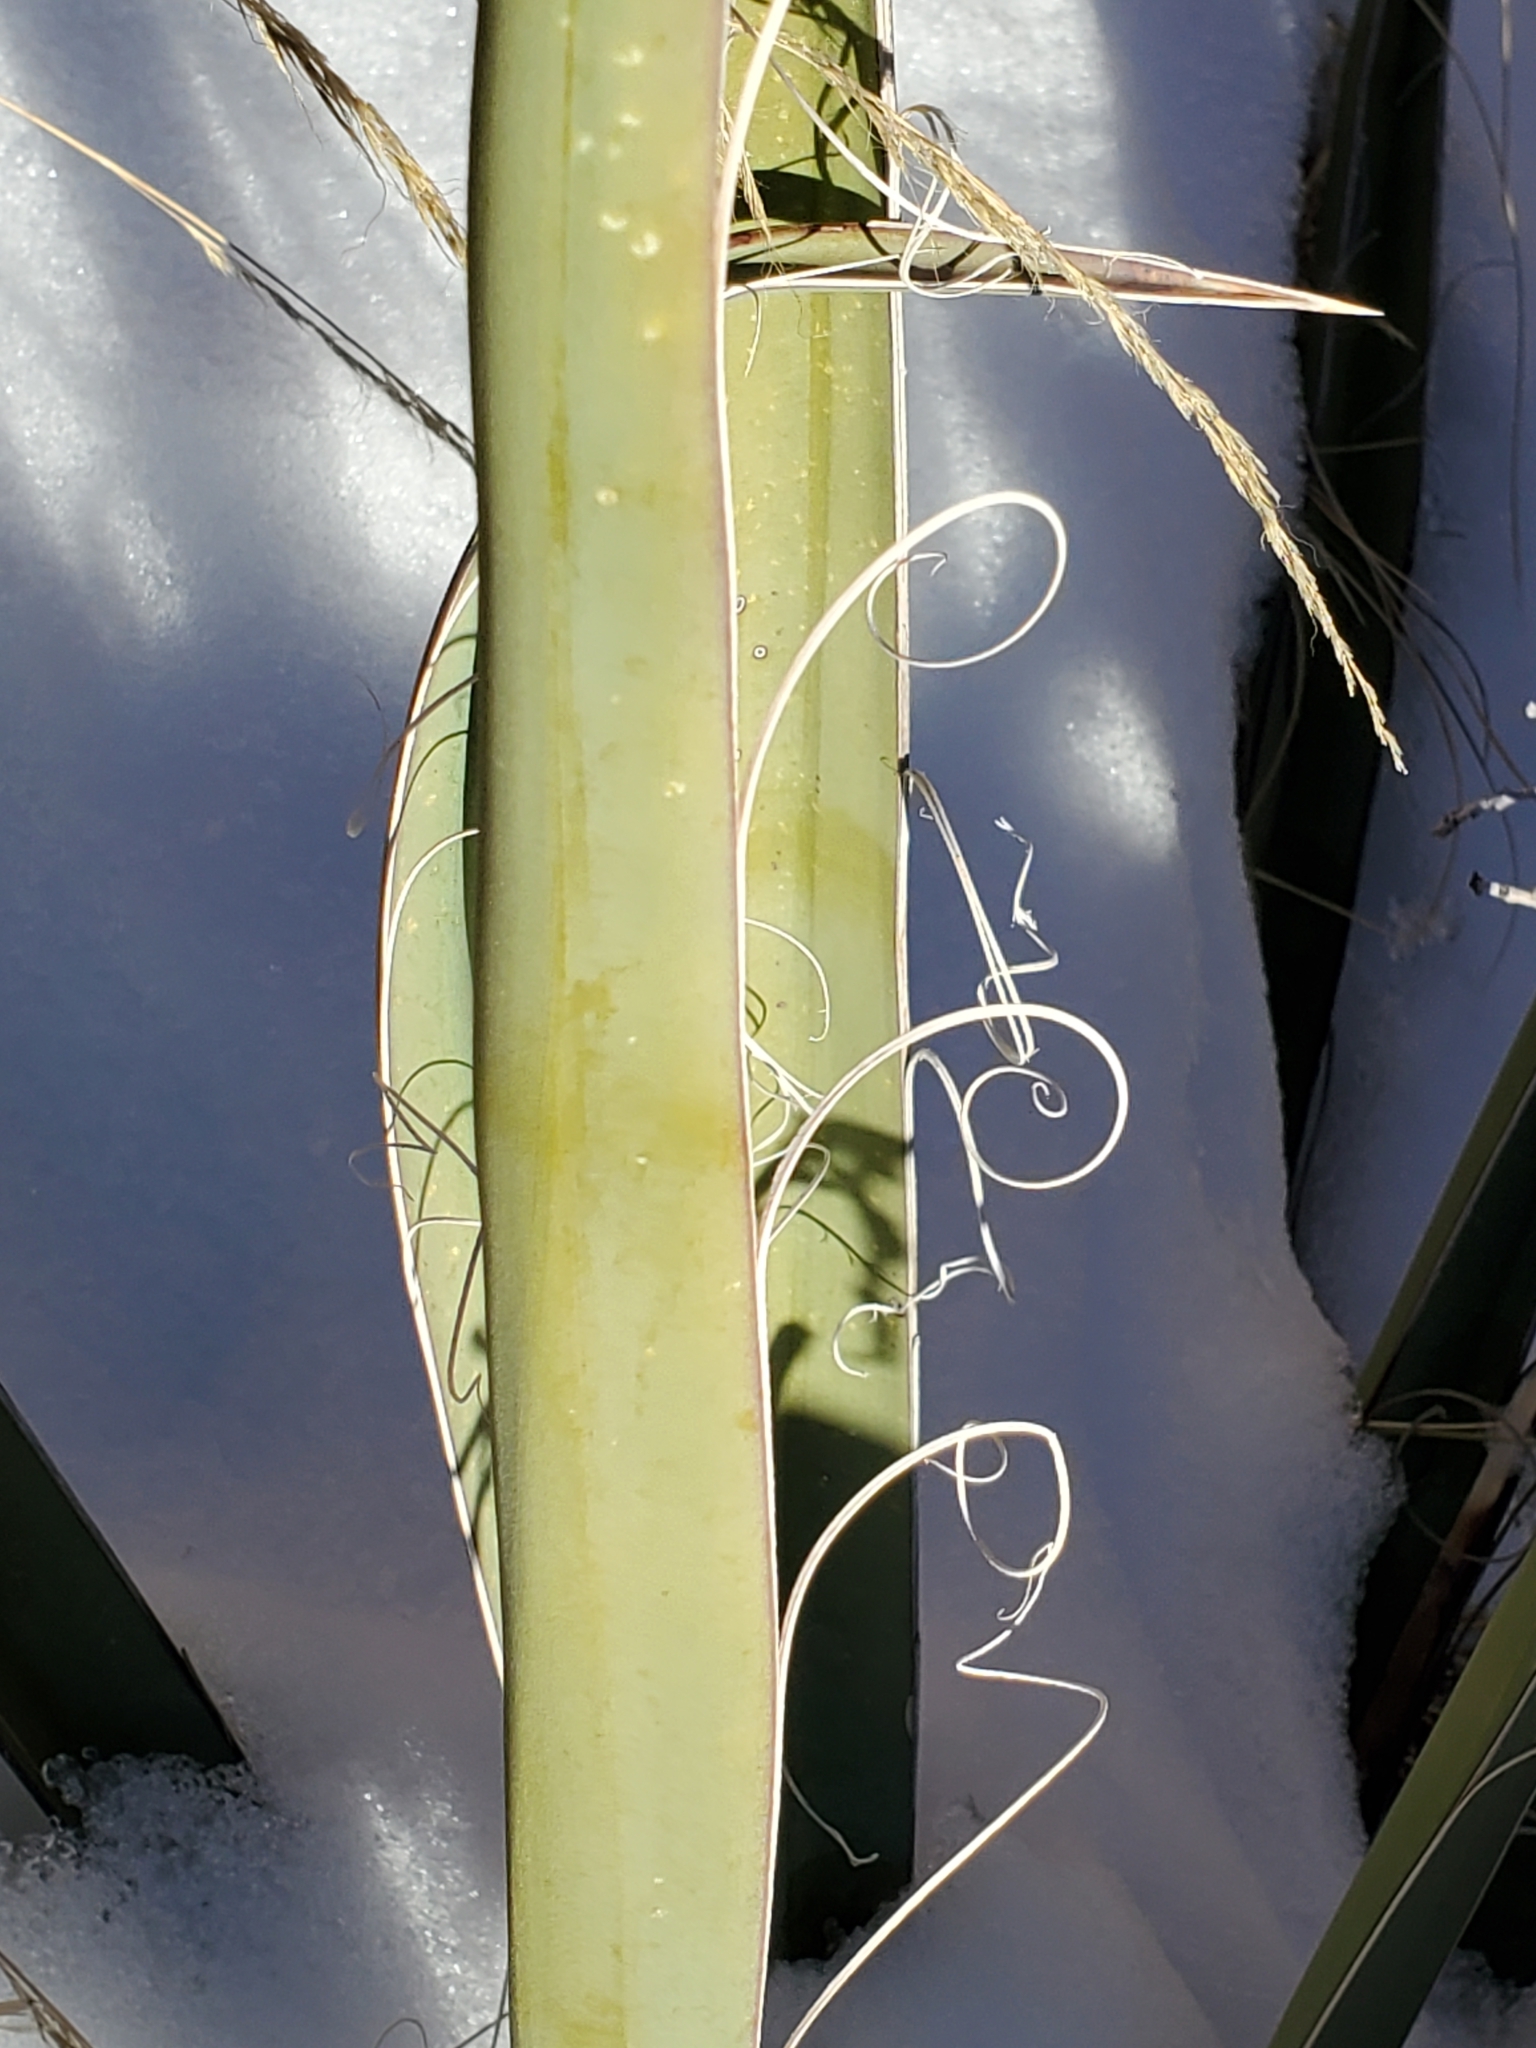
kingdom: Plantae
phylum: Tracheophyta
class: Liliopsida
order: Asparagales
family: Asparagaceae
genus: Yucca
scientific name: Yucca baccata
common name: Banana yucca
